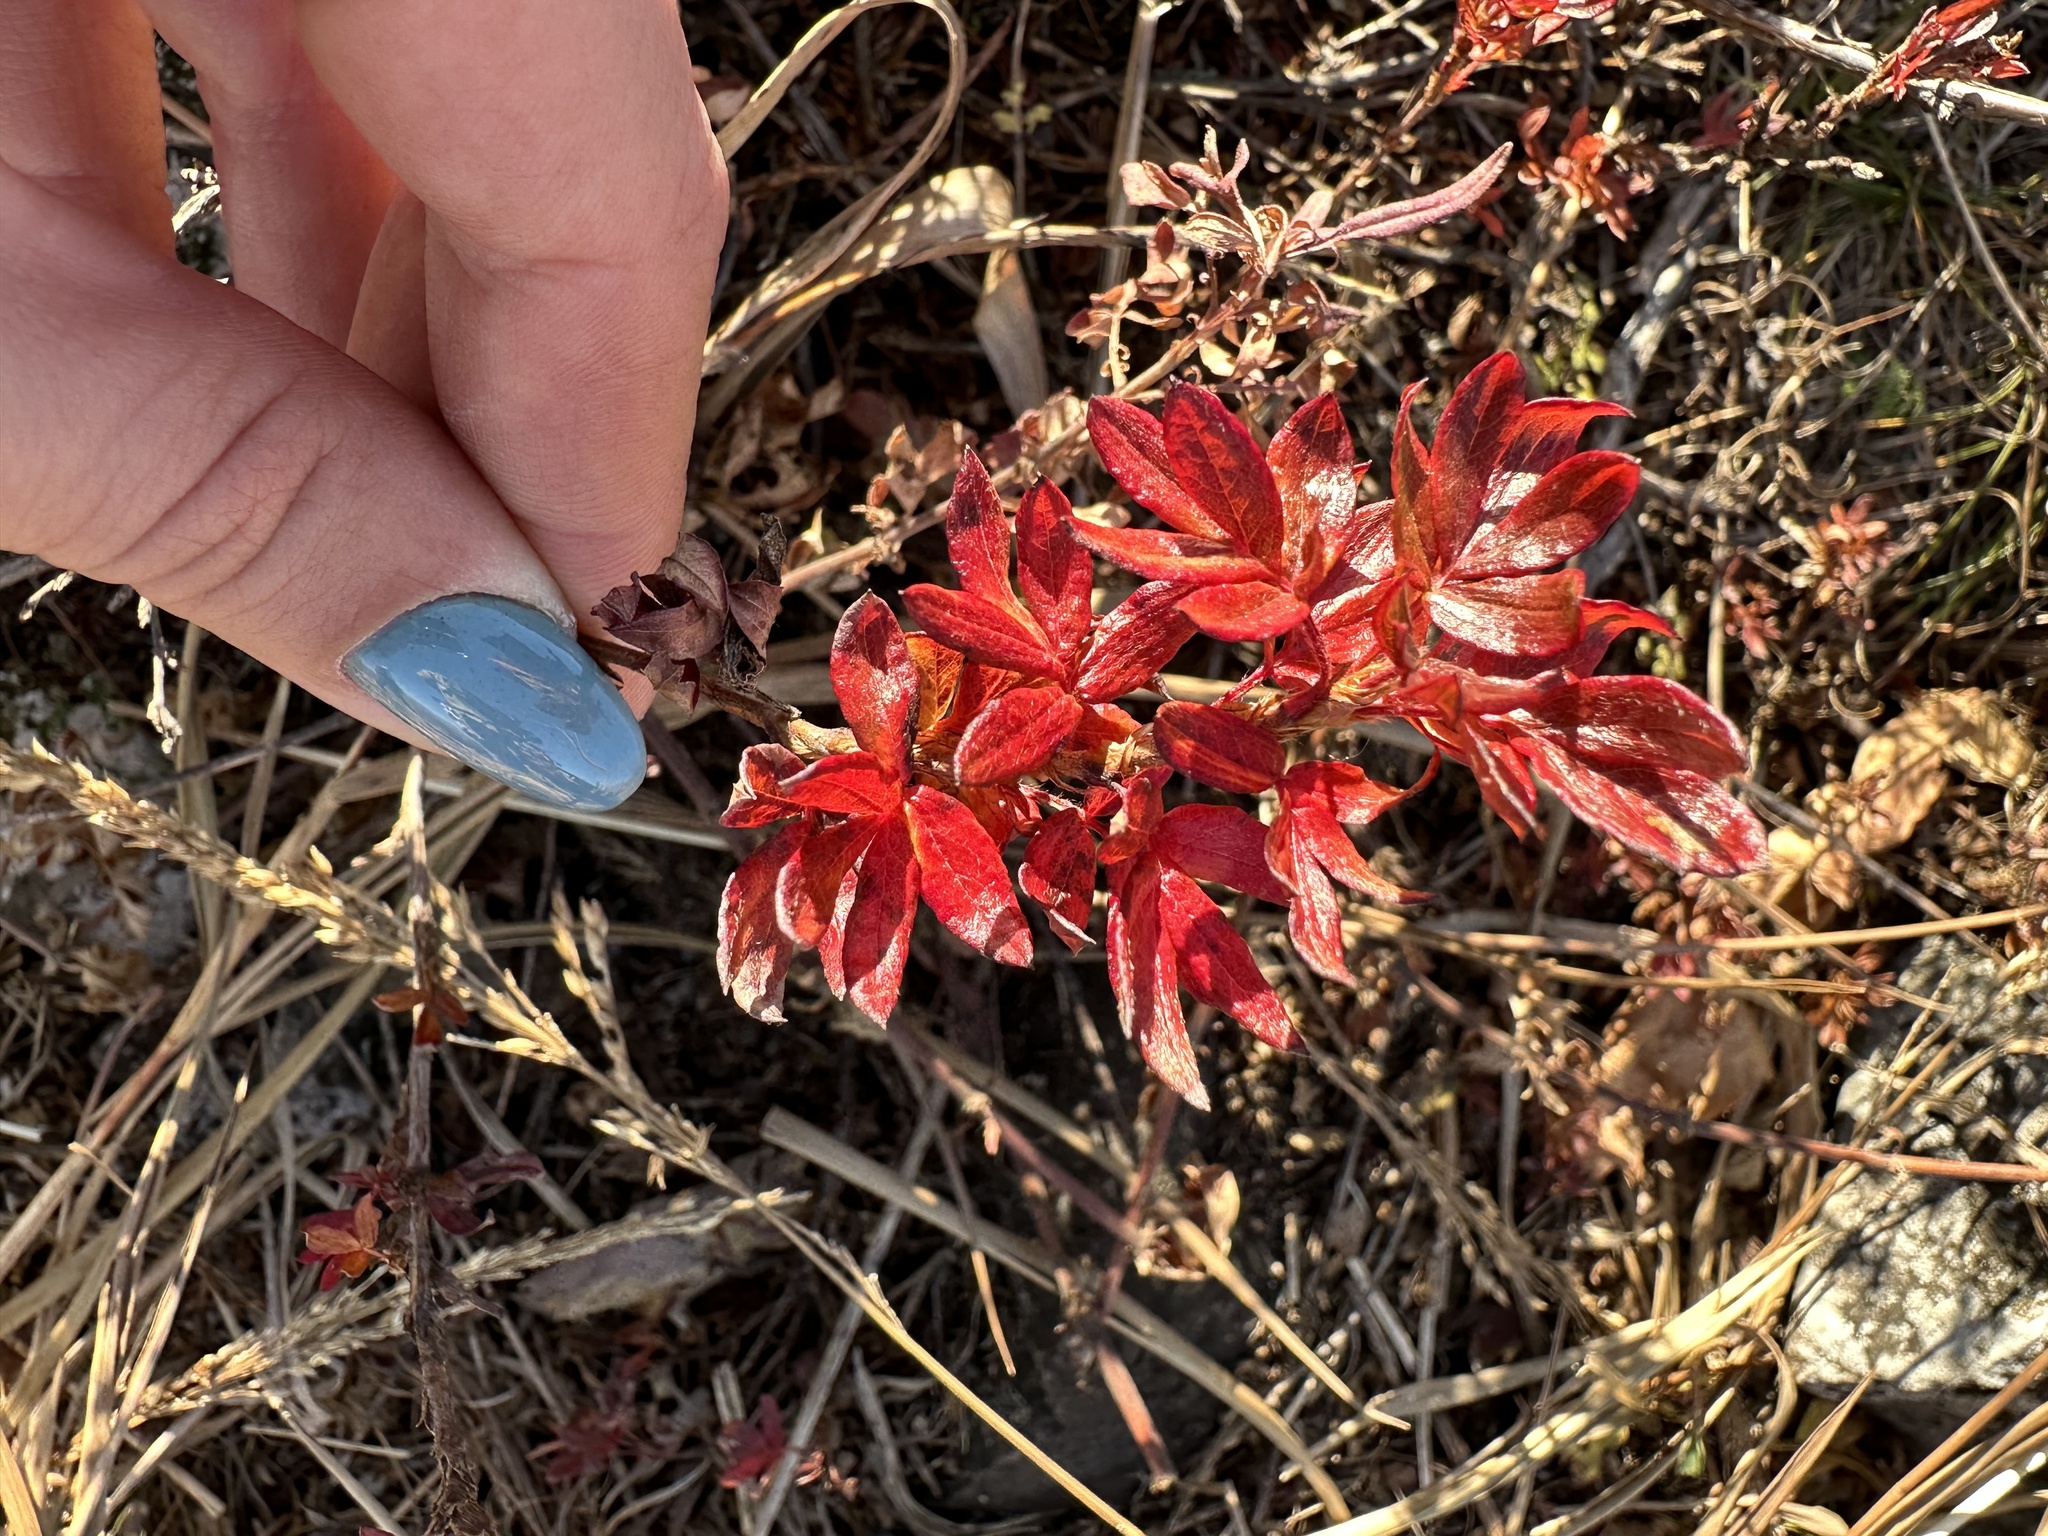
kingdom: Plantae
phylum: Tracheophyta
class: Magnoliopsida
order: Rosales
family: Rosaceae
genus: Dasiphora
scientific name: Dasiphora davurica
